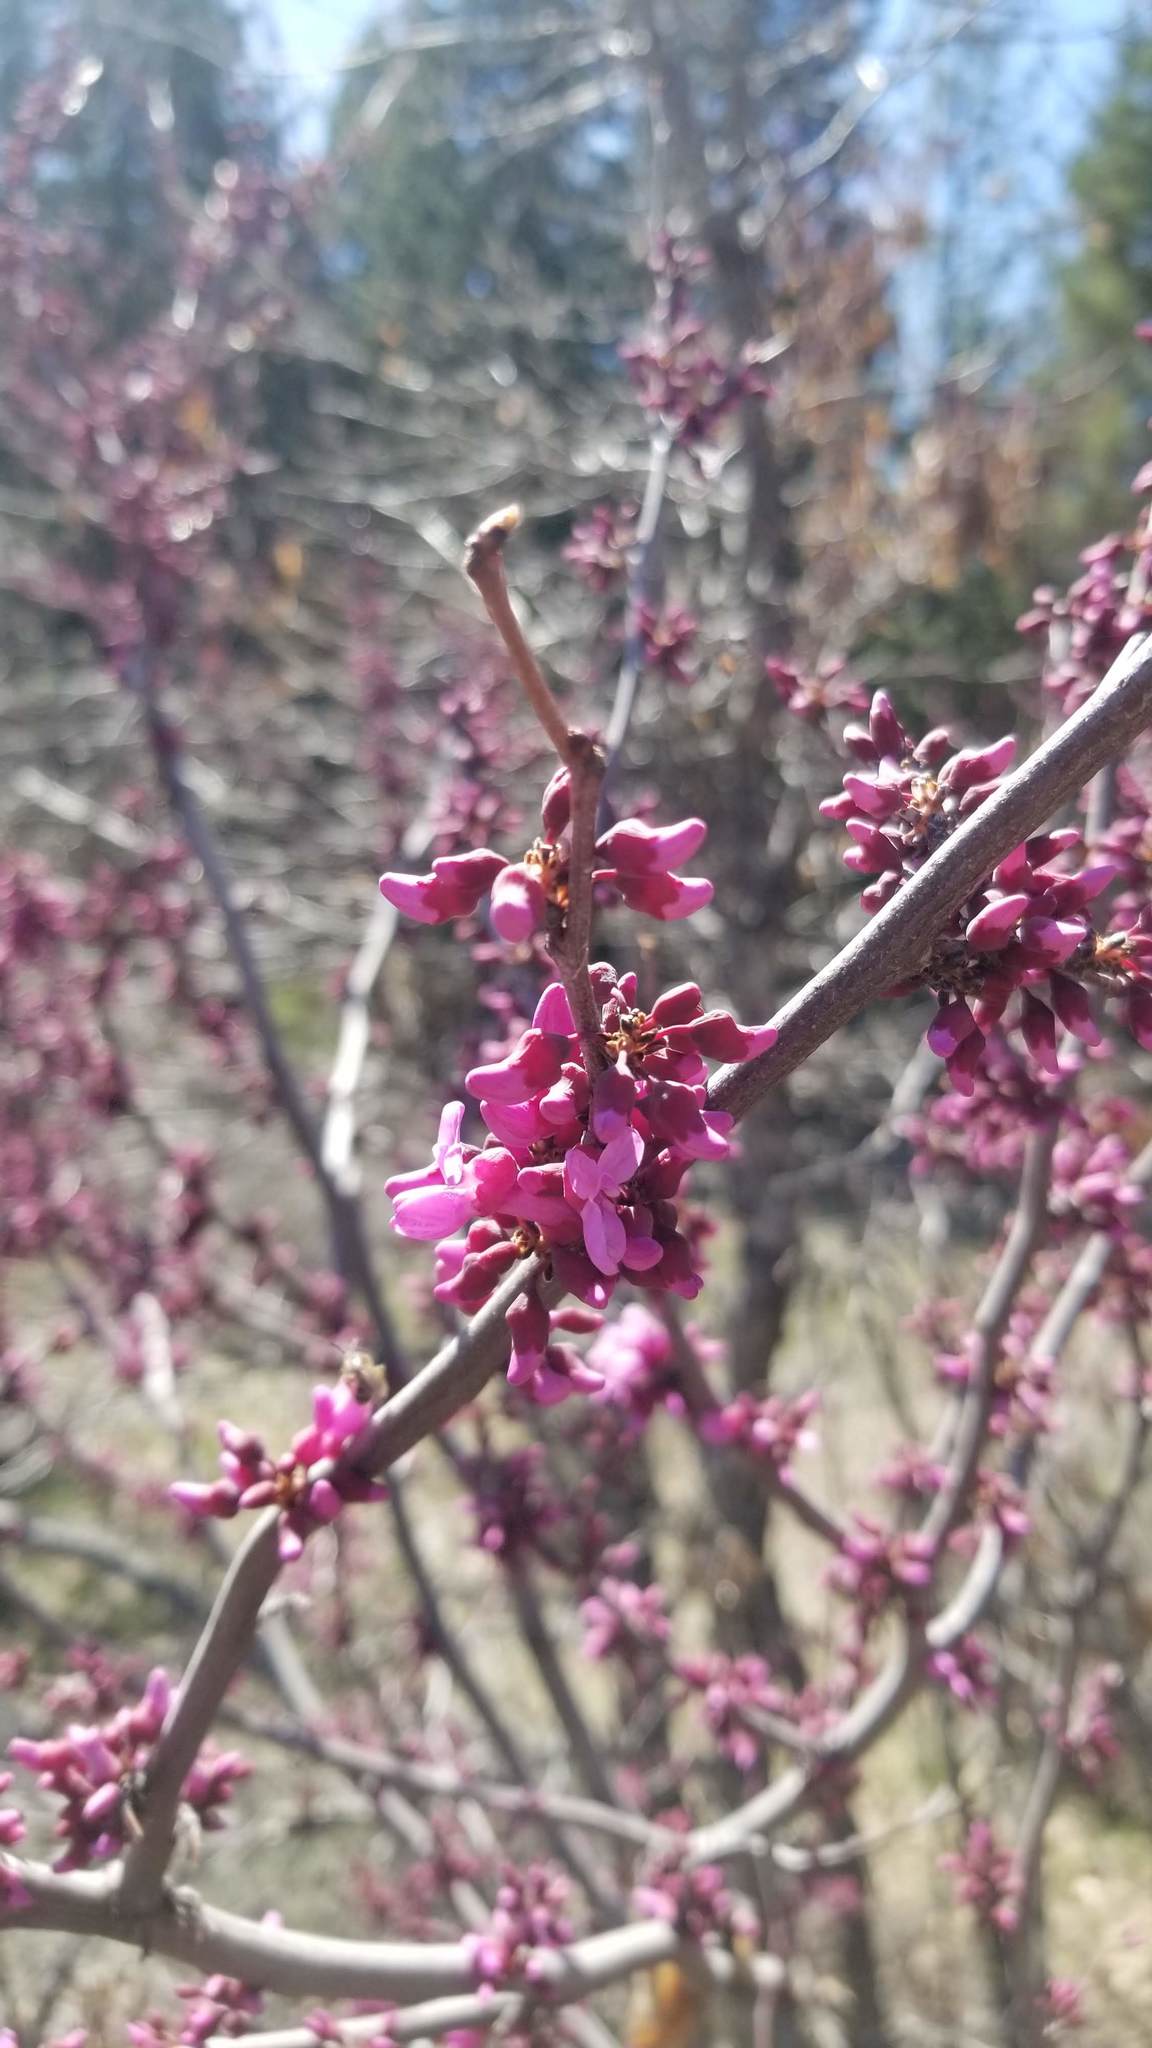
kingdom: Plantae
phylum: Tracheophyta
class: Magnoliopsida
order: Fabales
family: Fabaceae
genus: Cercis
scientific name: Cercis occidentalis
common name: California redbud
